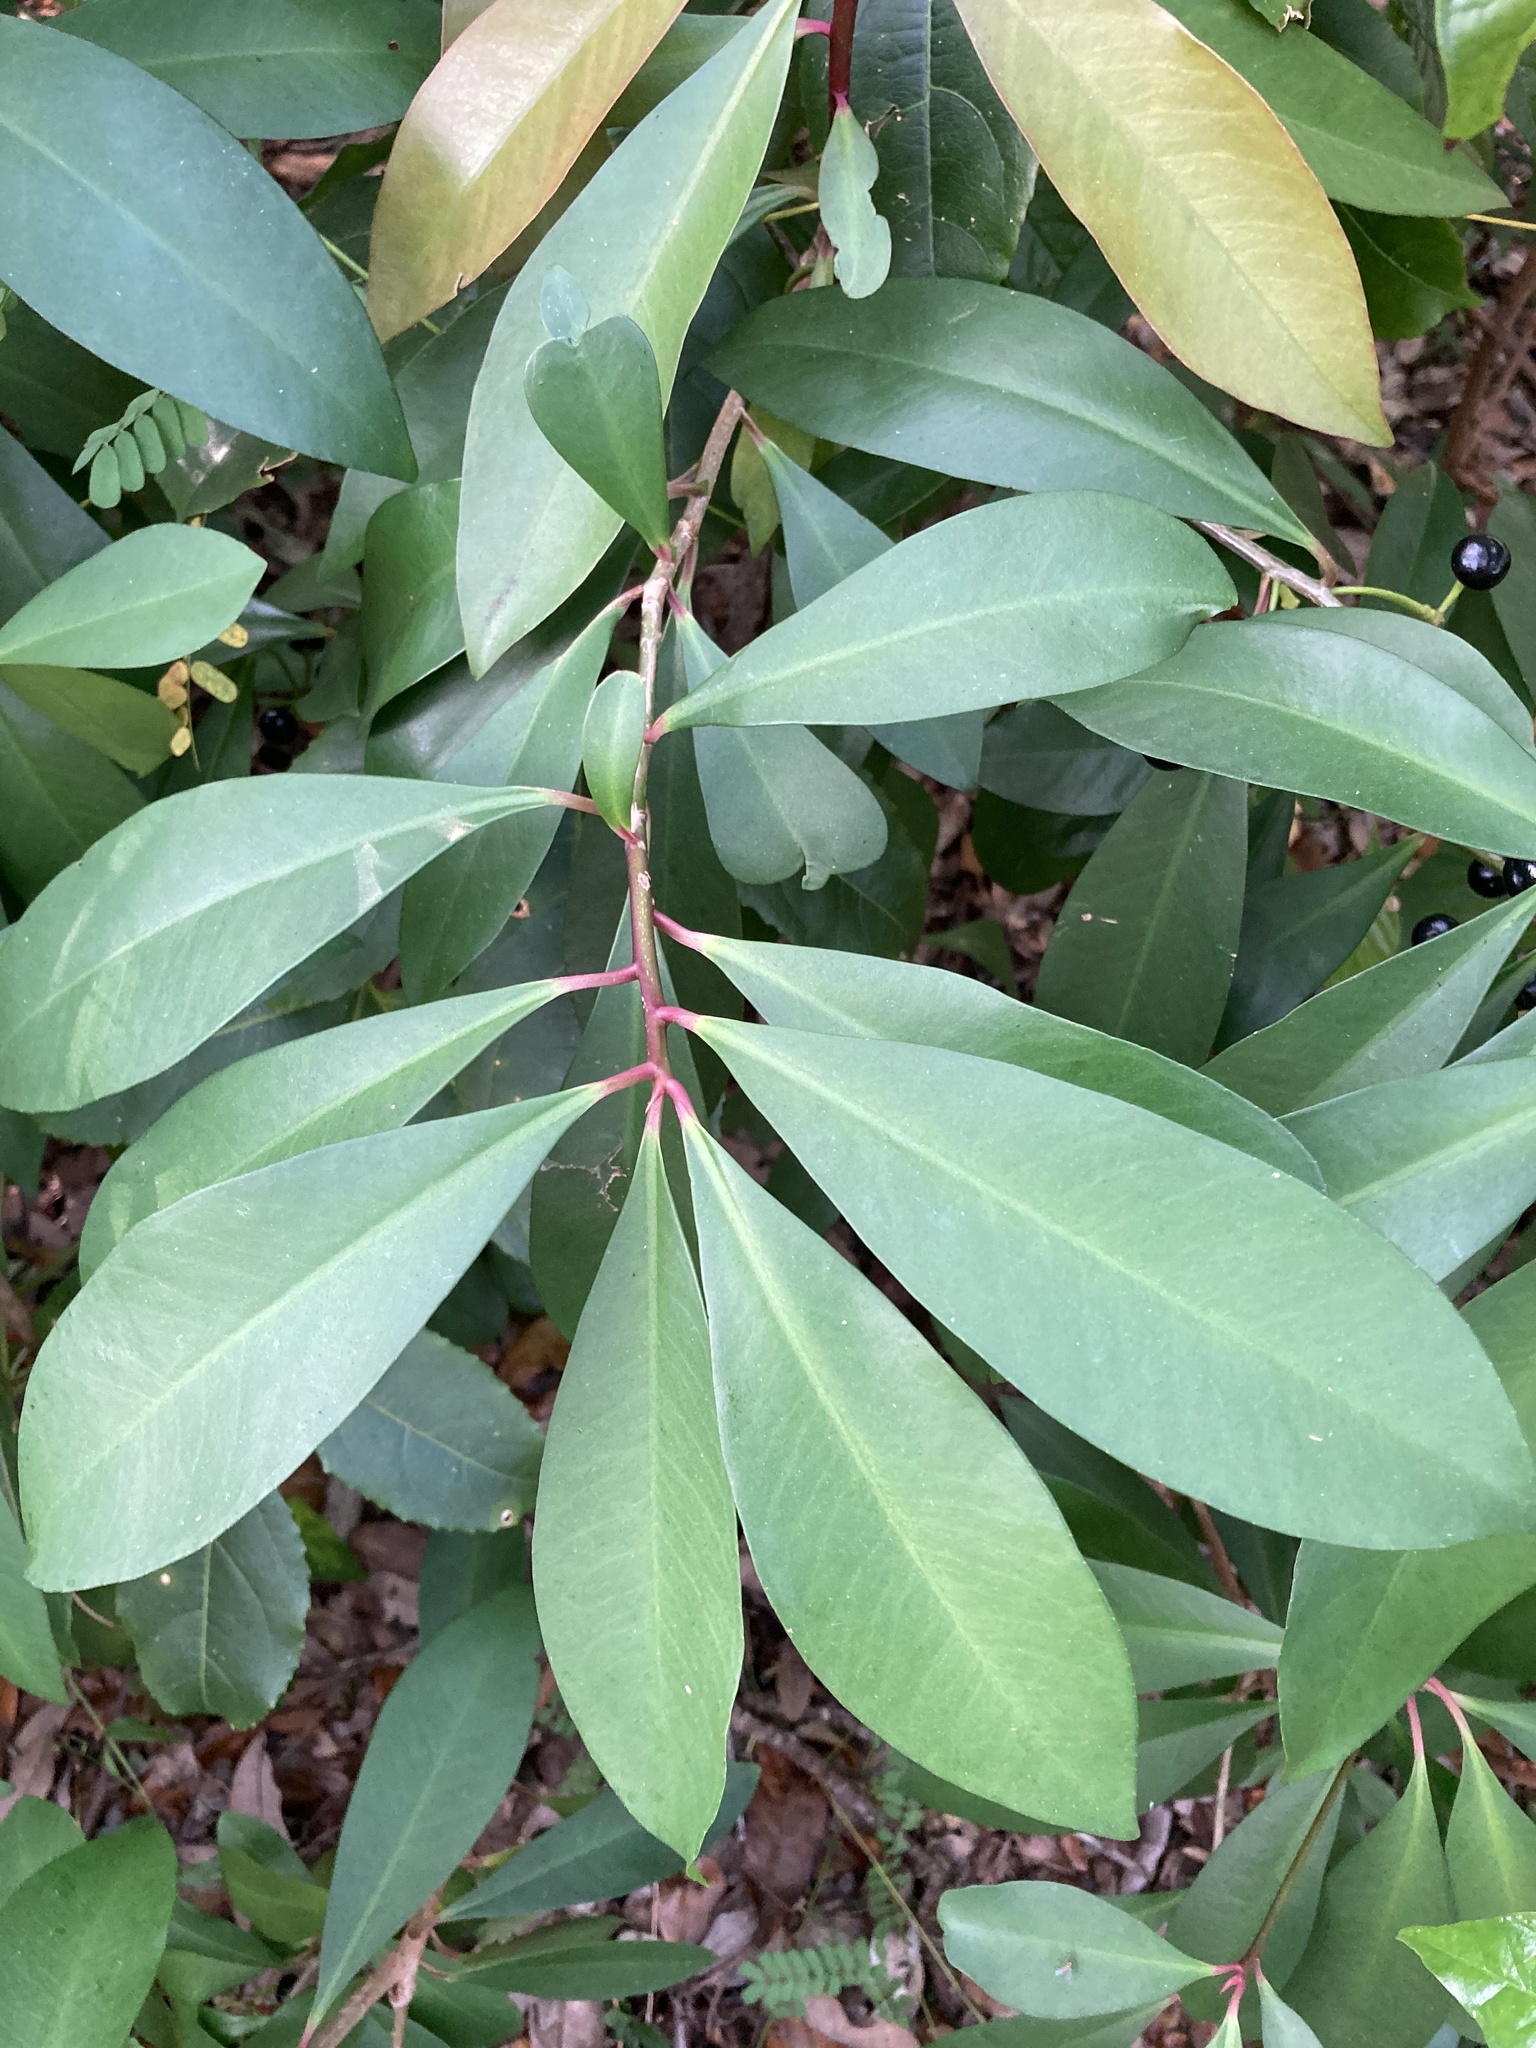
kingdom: Plantae
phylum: Tracheophyta
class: Magnoliopsida
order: Ericales
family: Primulaceae
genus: Ardisia
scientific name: Ardisia elliptica
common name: Shoebutton
